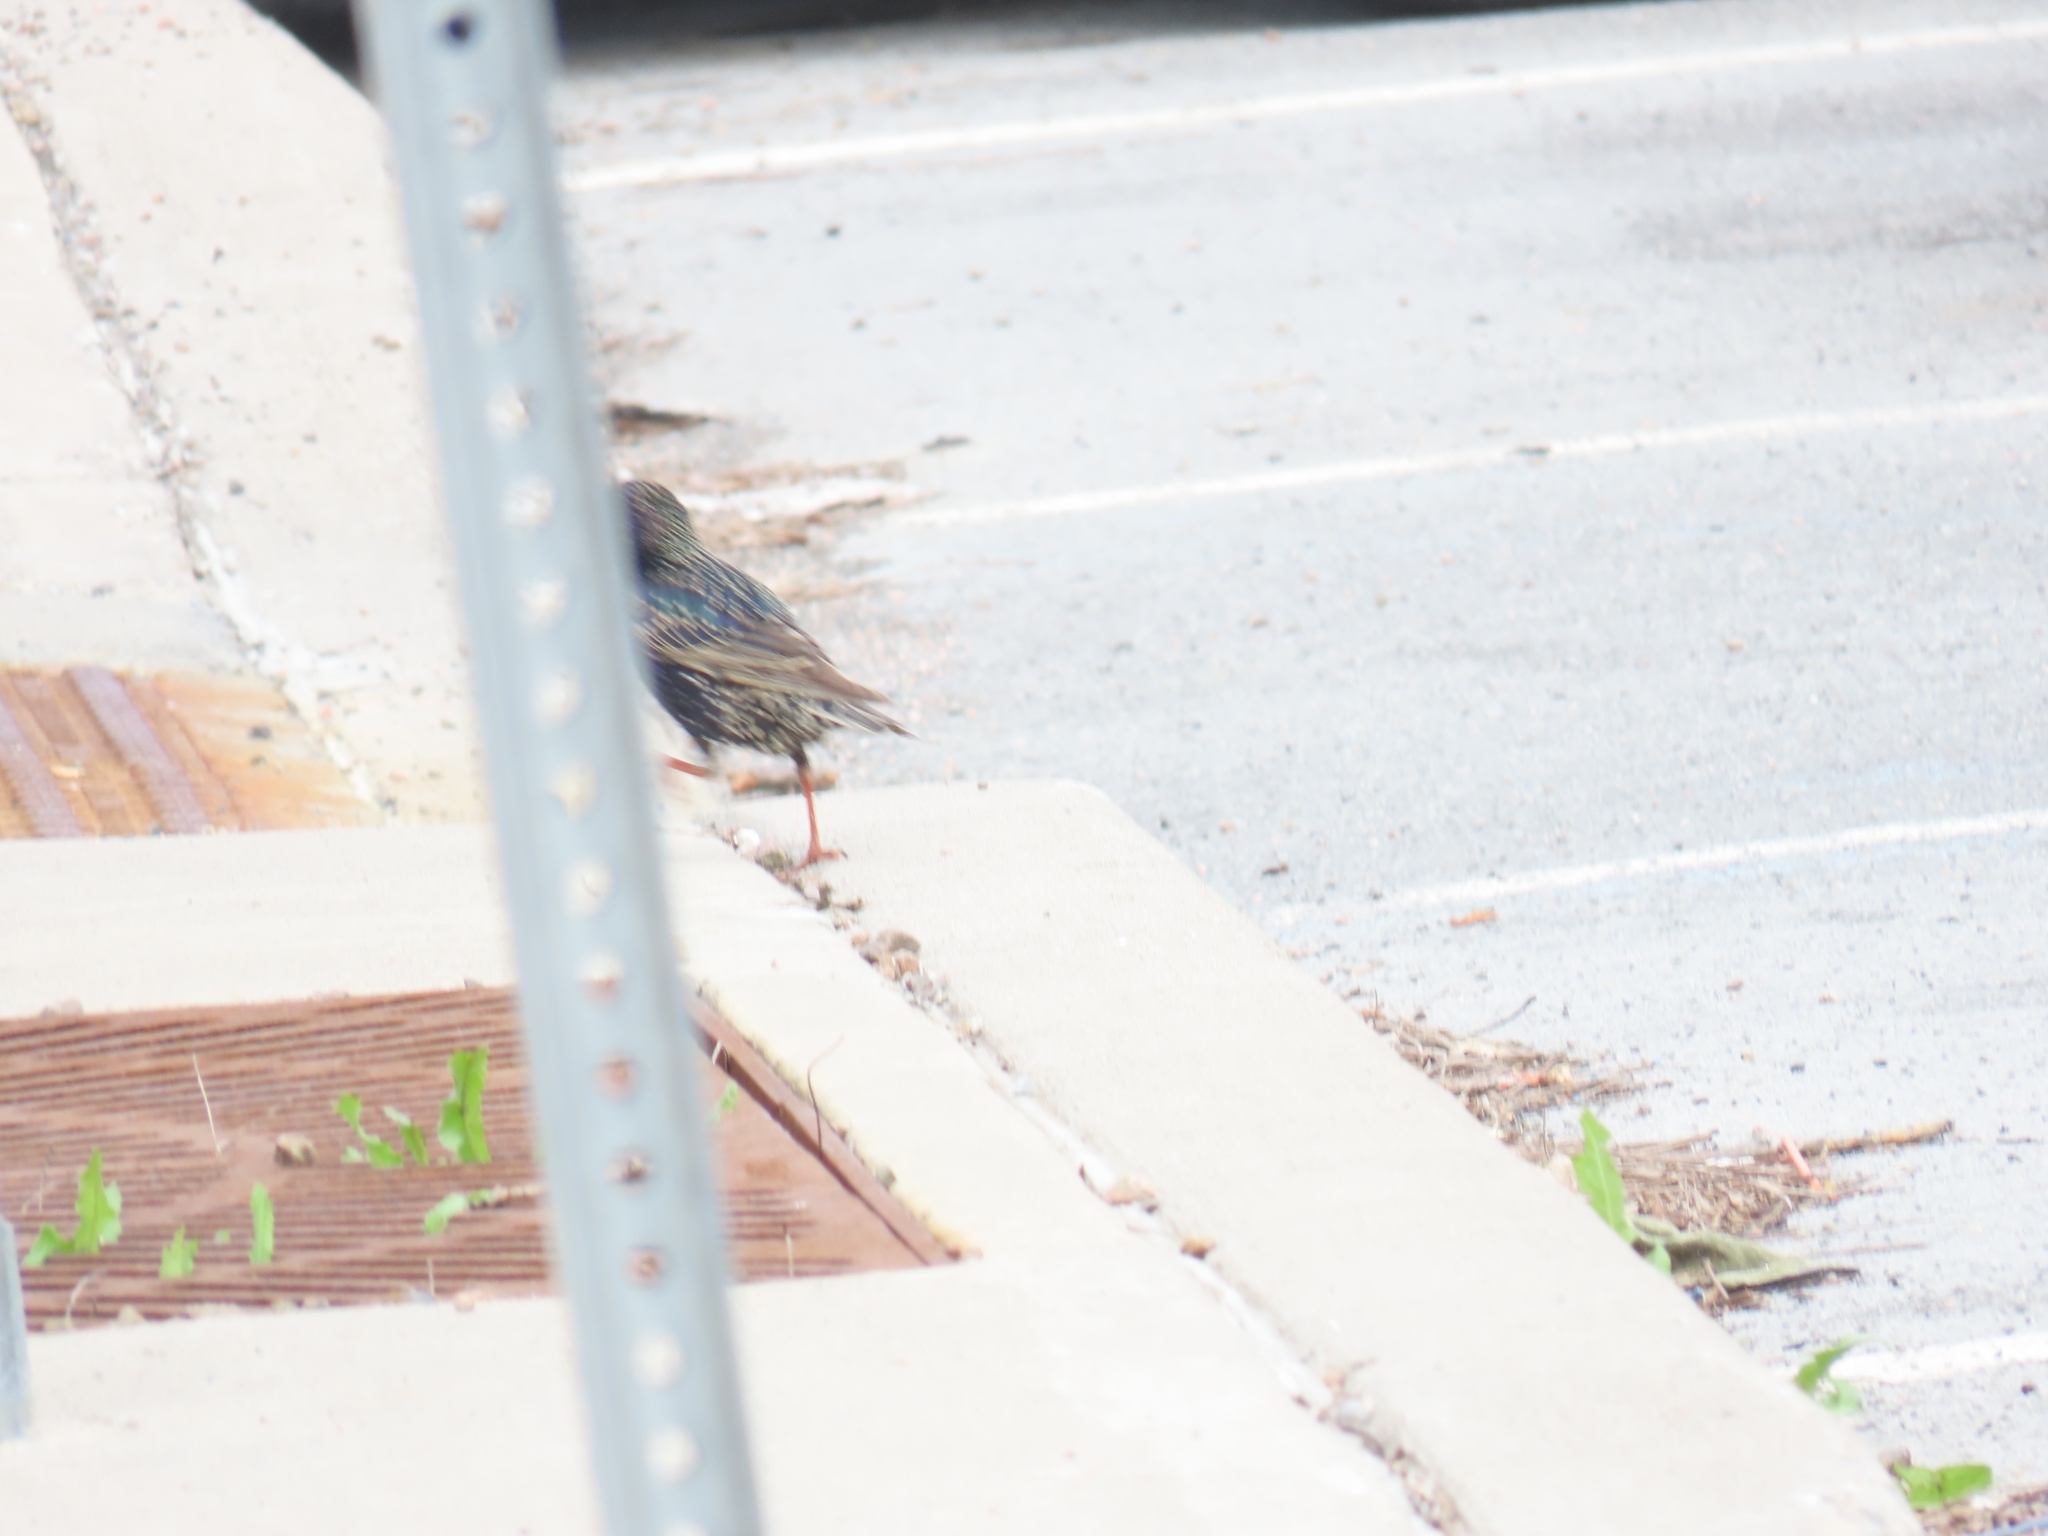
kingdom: Animalia
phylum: Chordata
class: Aves
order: Passeriformes
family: Sturnidae
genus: Sturnus
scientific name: Sturnus vulgaris
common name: Common starling
